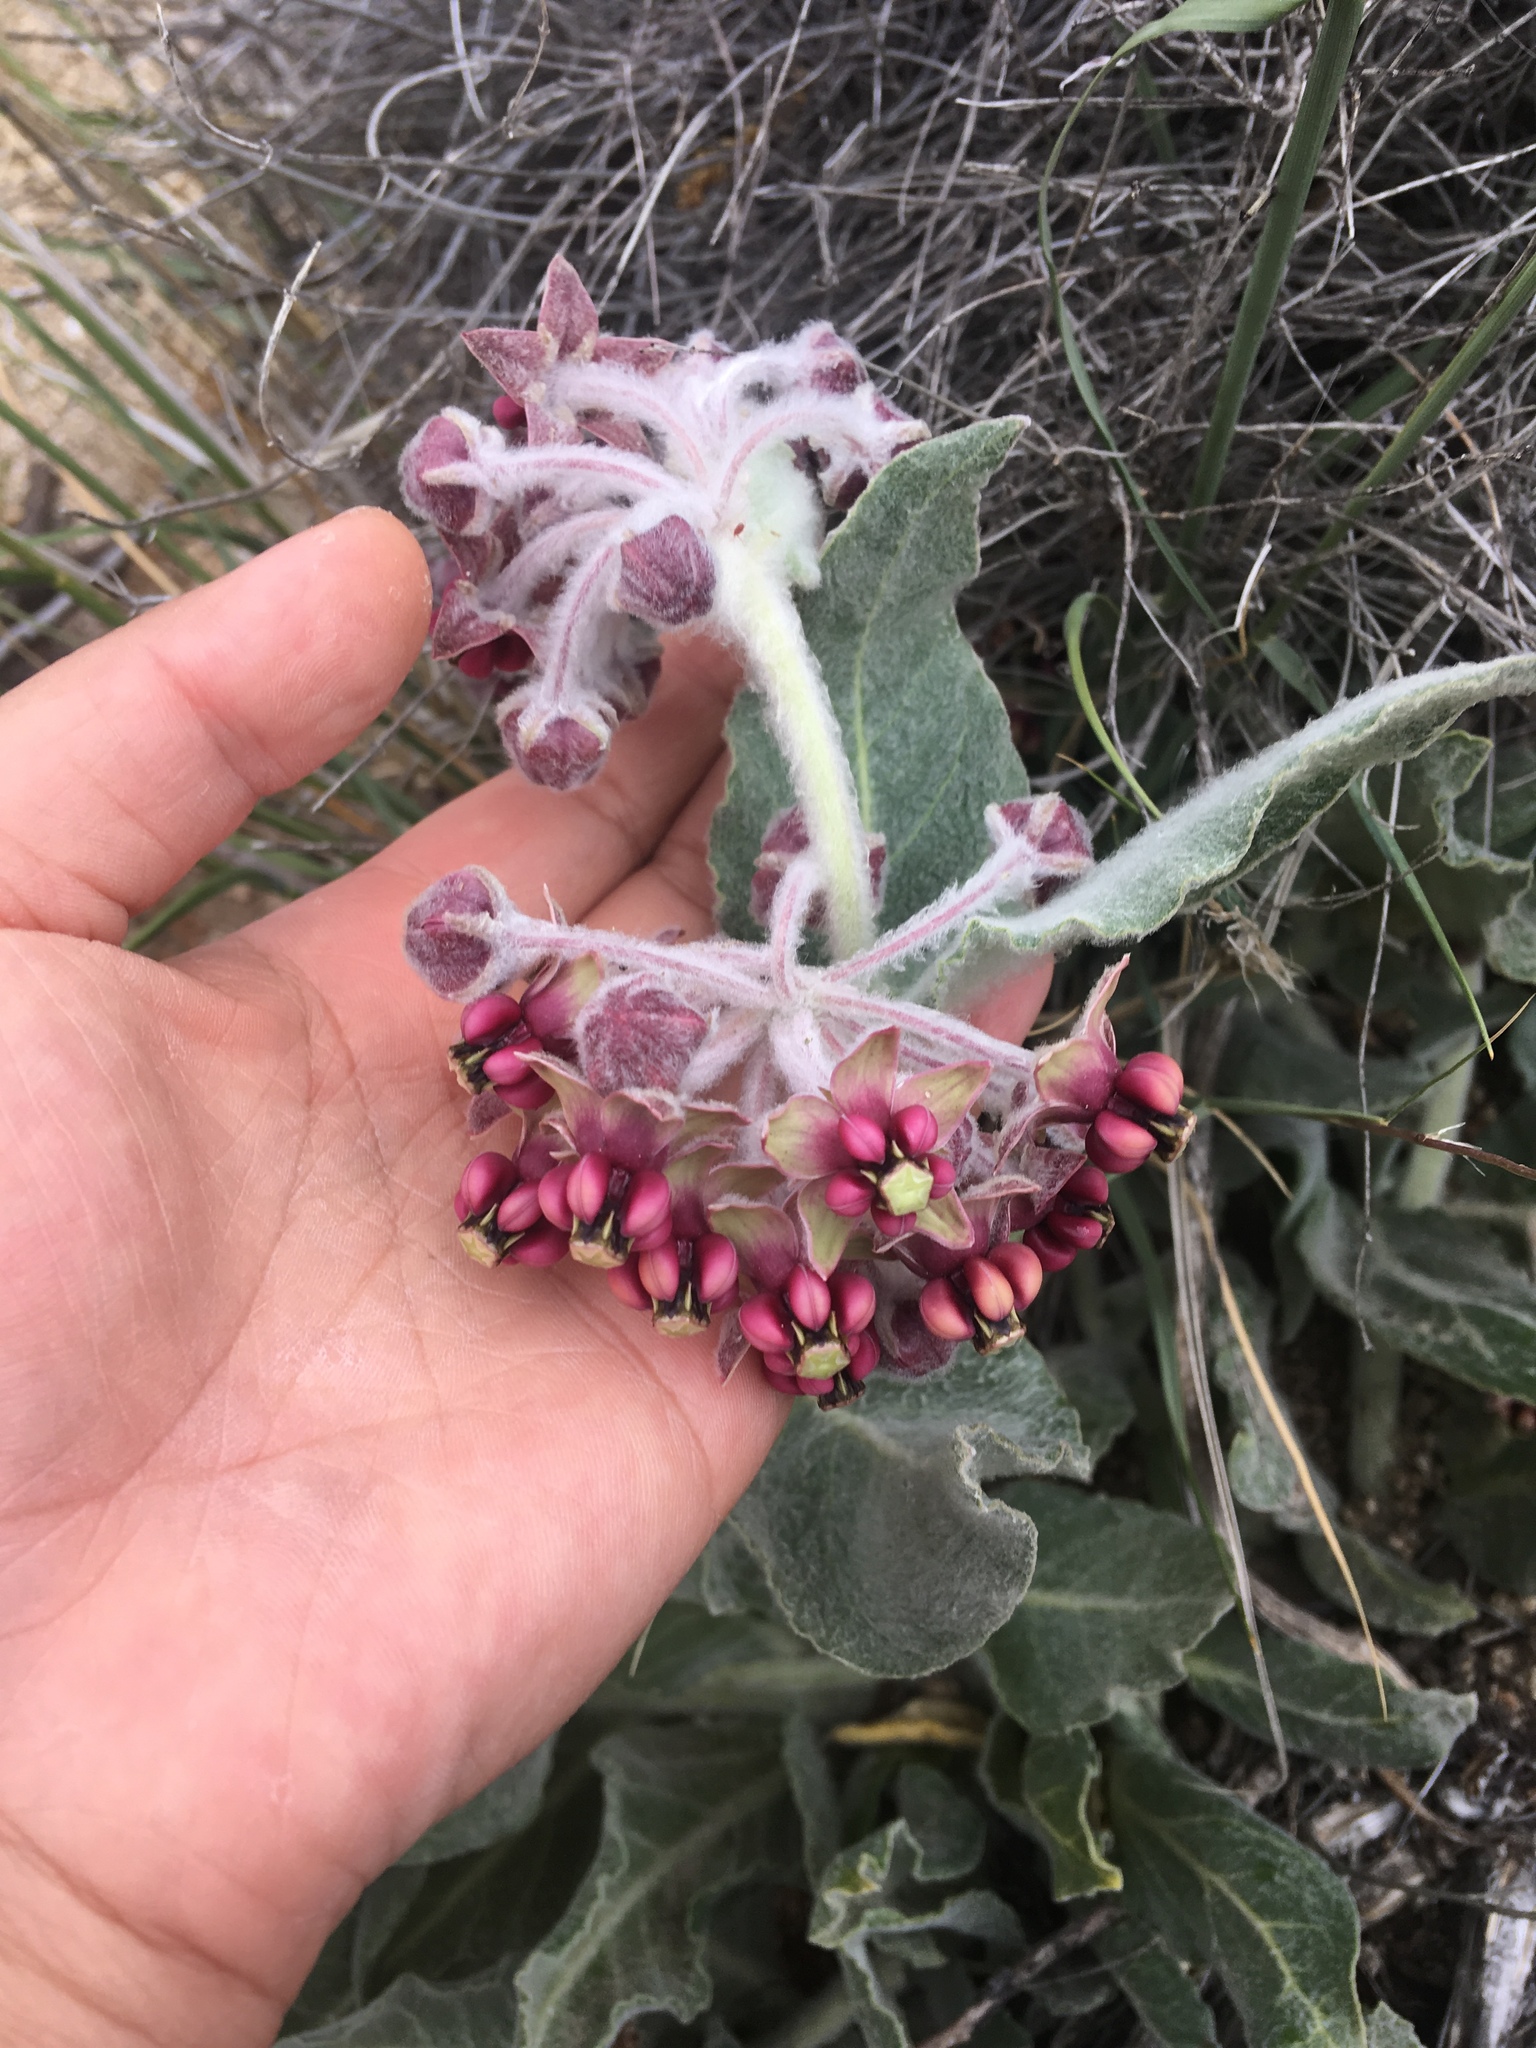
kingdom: Plantae
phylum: Tracheophyta
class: Magnoliopsida
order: Gentianales
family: Apocynaceae
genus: Asclepias
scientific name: Asclepias californica
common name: California milkweed
